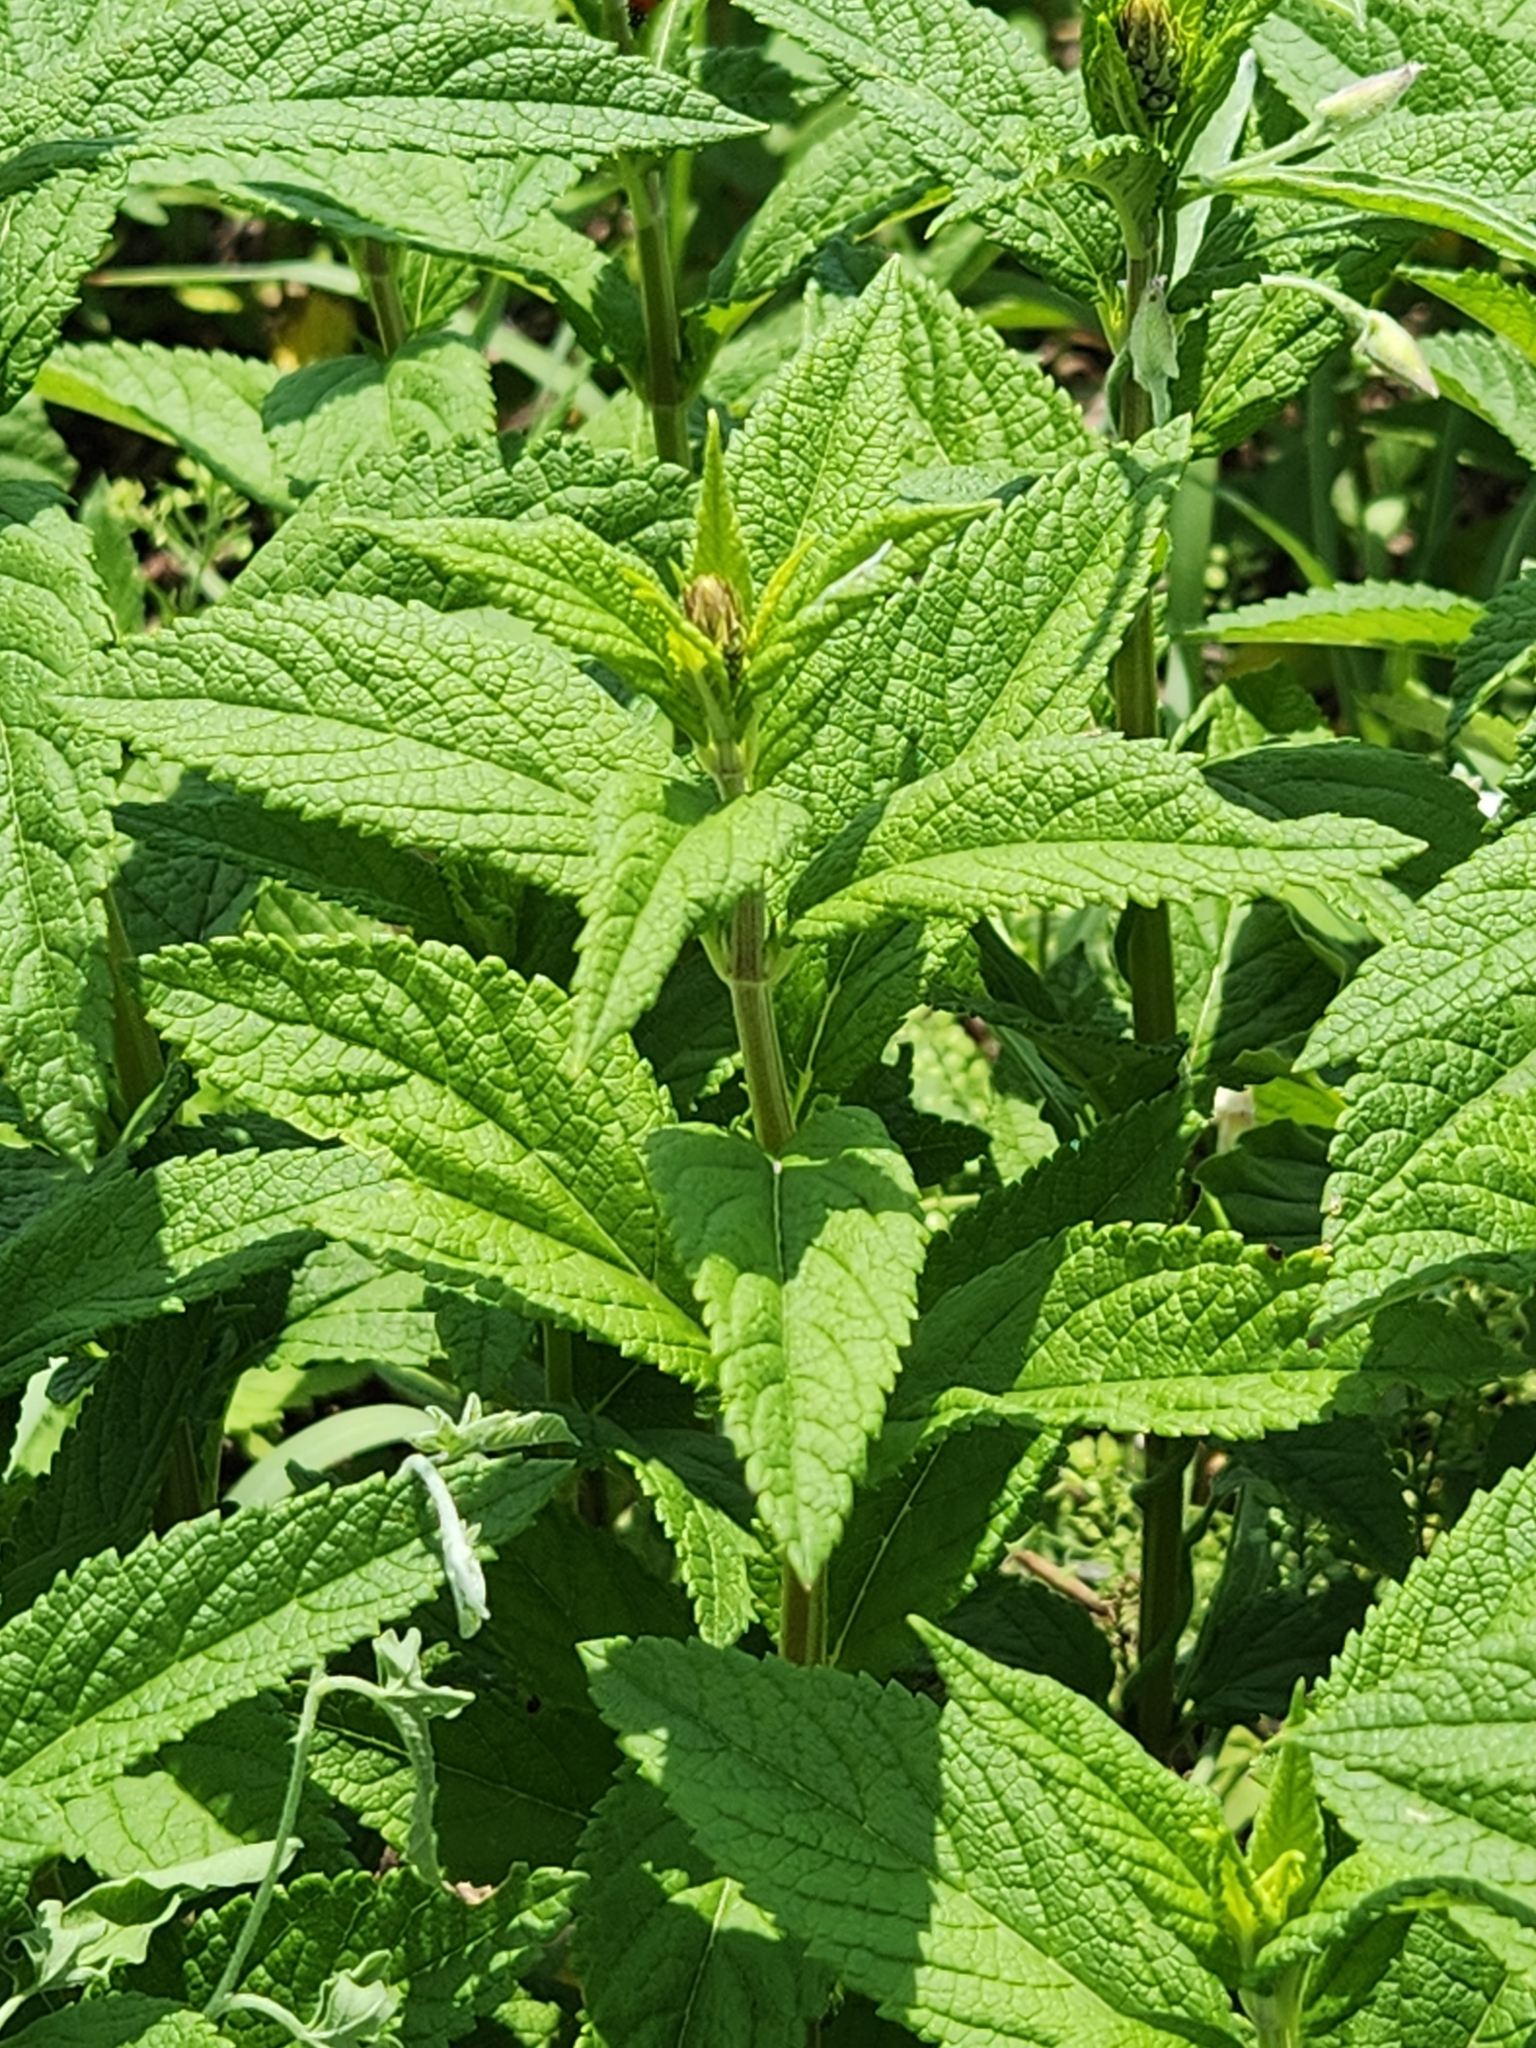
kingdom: Plantae
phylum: Tracheophyta
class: Magnoliopsida
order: Lamiales
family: Lamiaceae
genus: Teucrium
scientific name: Teucrium canadense
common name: American germander
